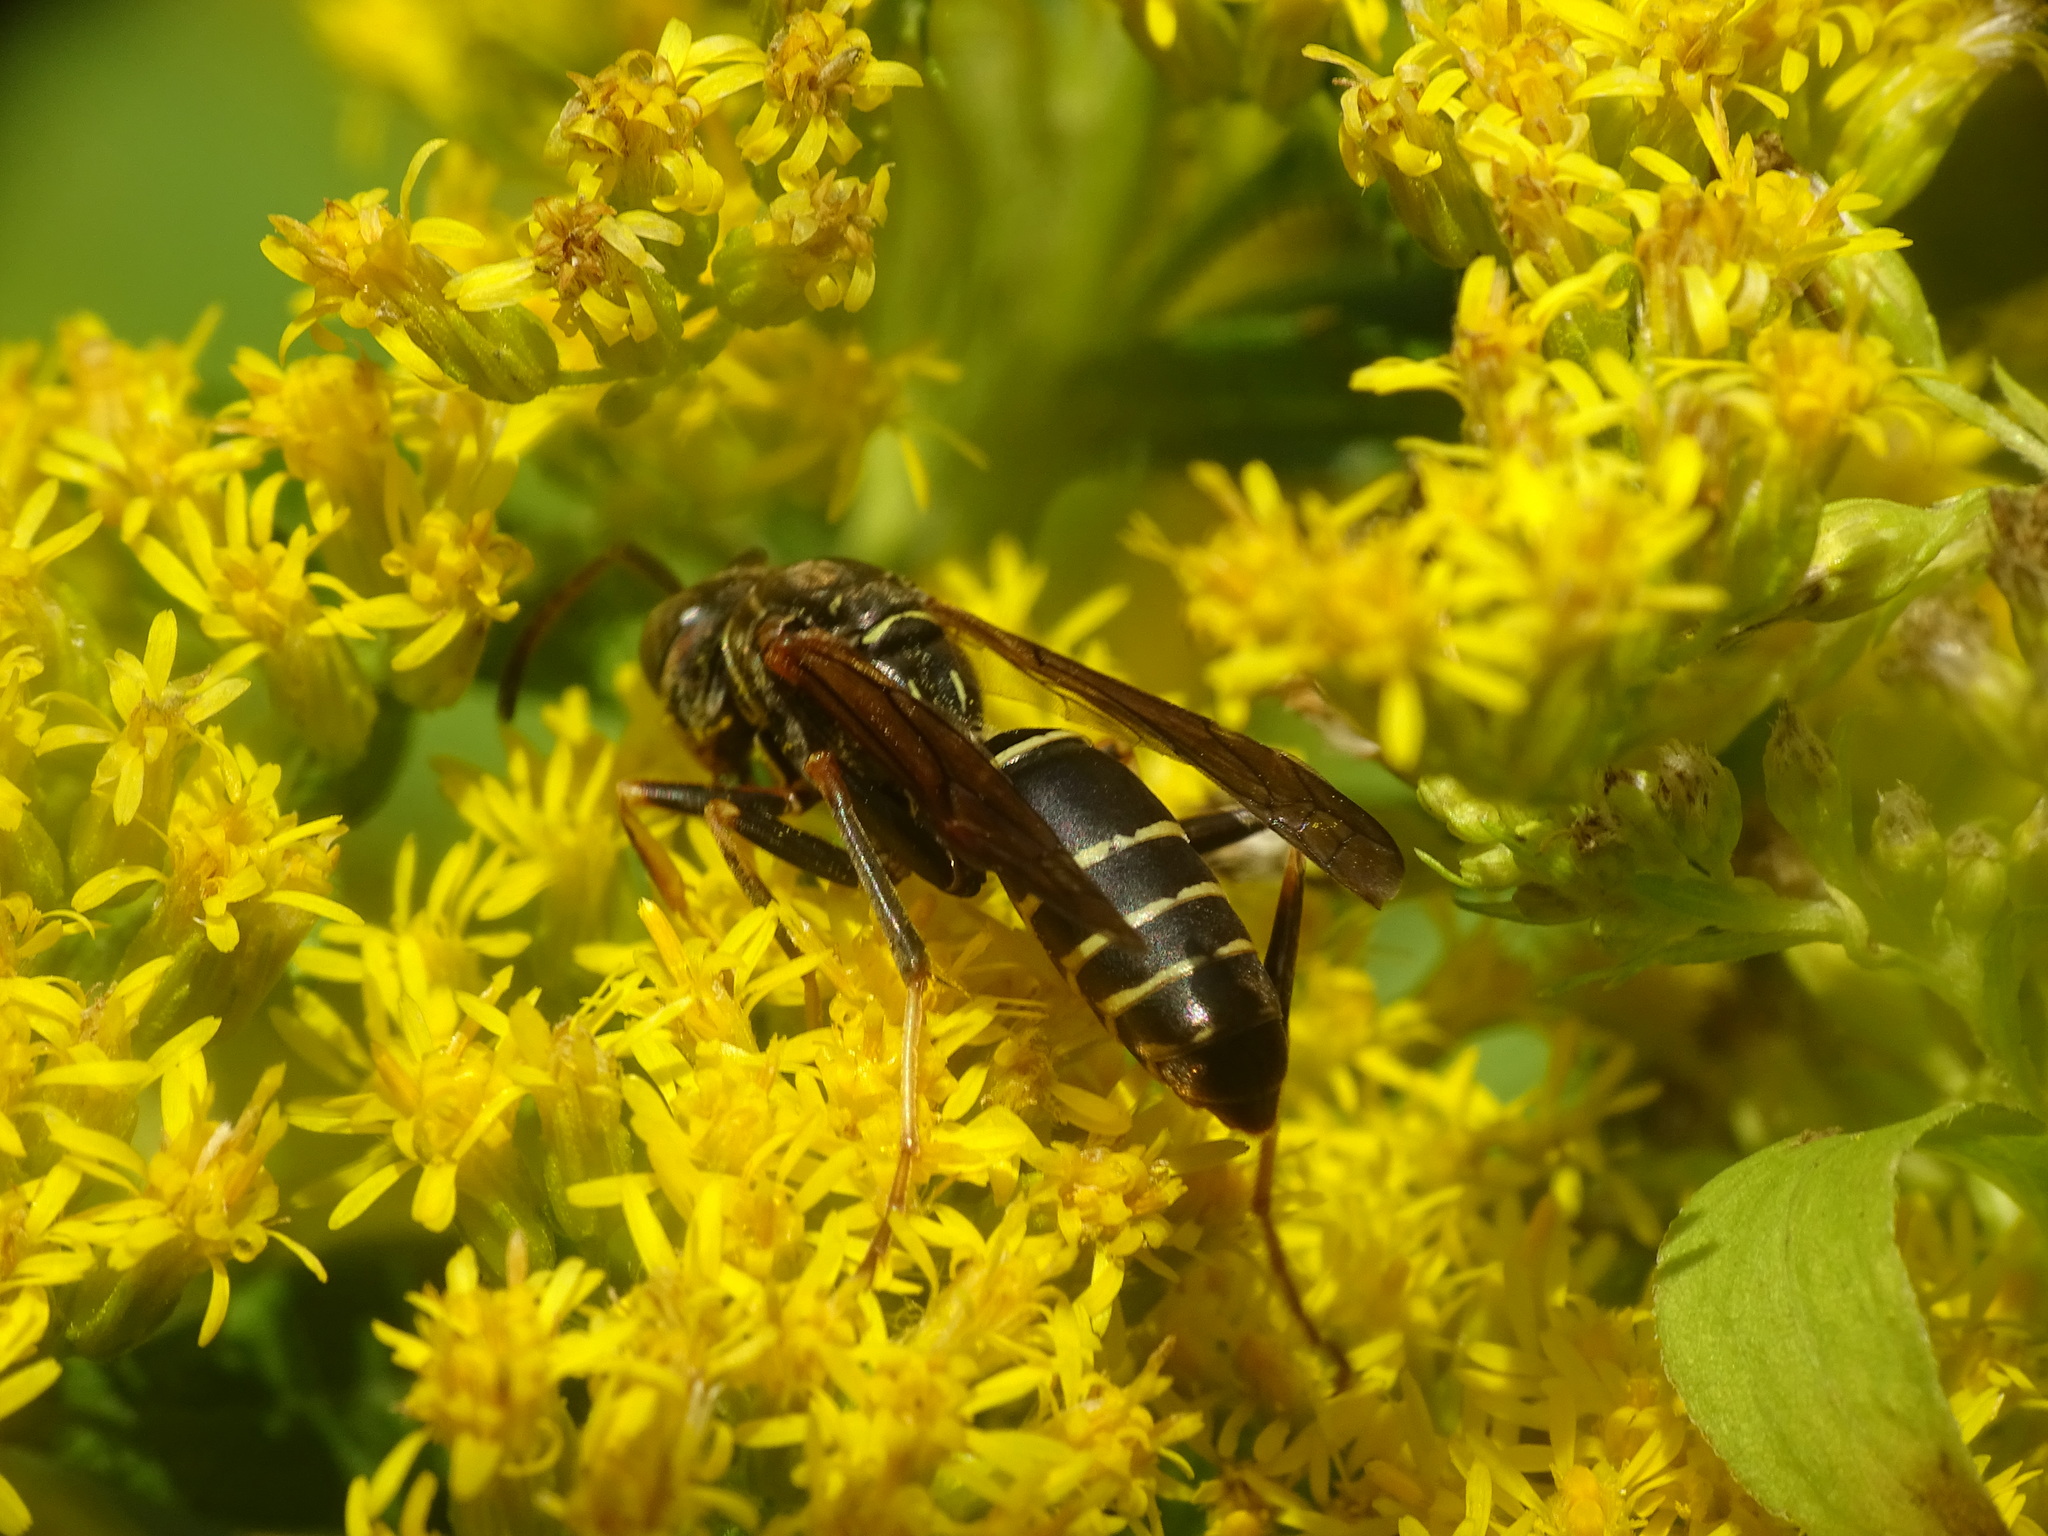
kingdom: Animalia
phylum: Arthropoda
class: Insecta
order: Hymenoptera
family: Eumenidae
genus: Polistes
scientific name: Polistes fuscatus
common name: Dark paper wasp
